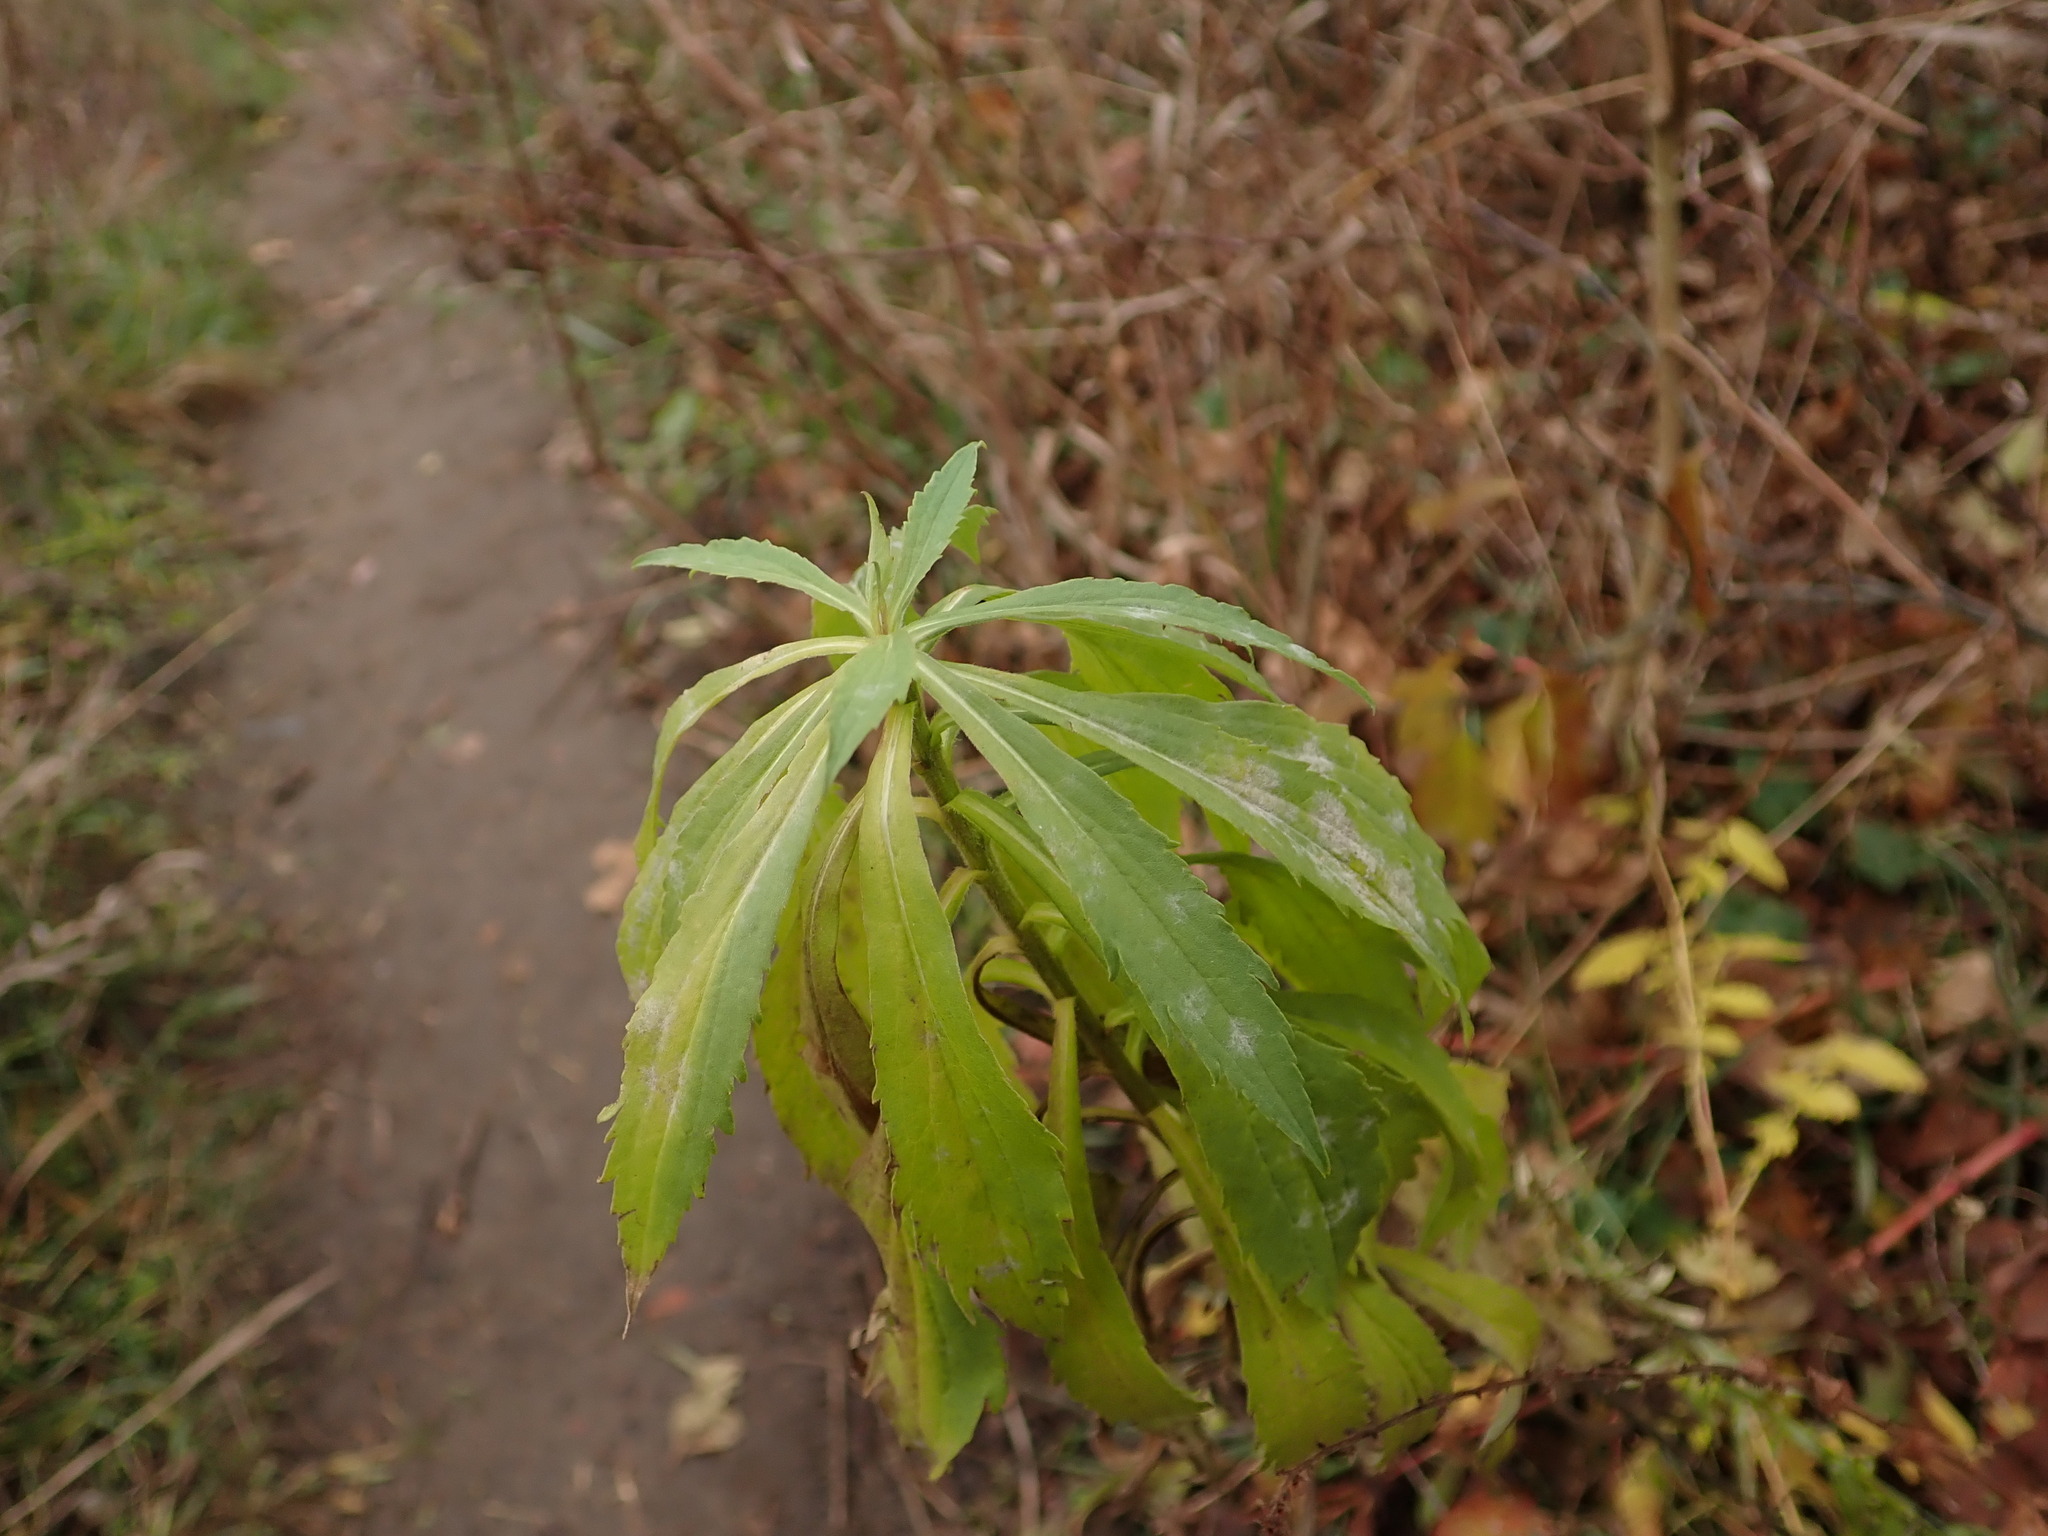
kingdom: Plantae
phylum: Tracheophyta
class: Magnoliopsida
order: Asterales
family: Asteraceae
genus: Solidago
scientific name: Solidago canadensis
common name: Canada goldenrod
